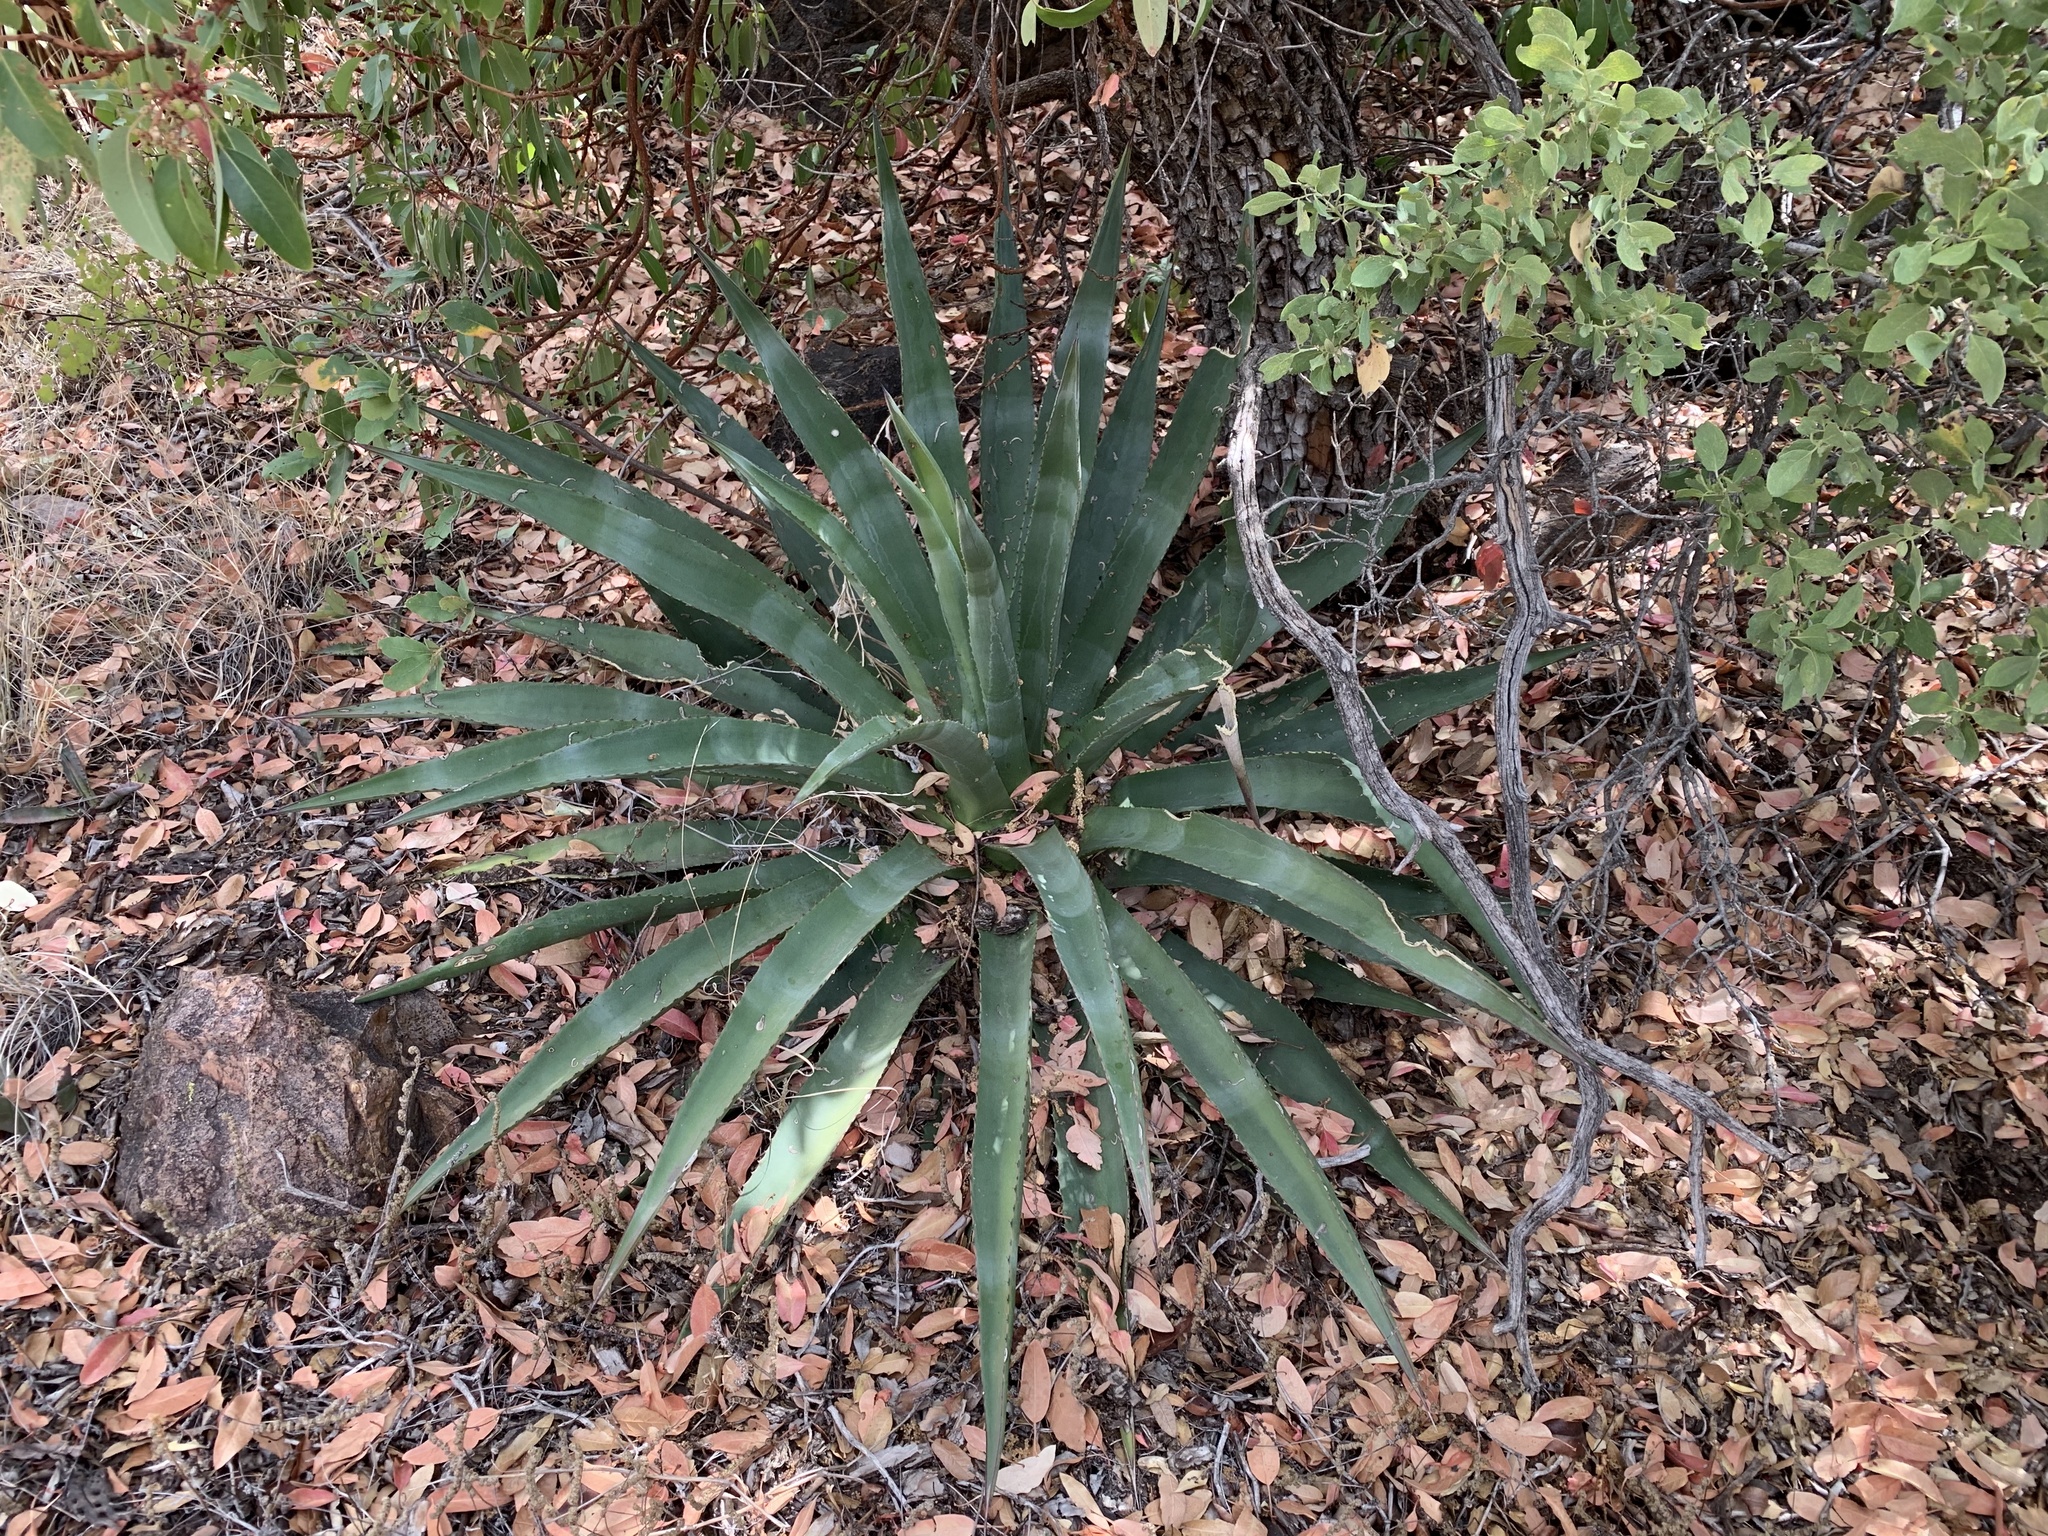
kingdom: Plantae
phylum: Tracheophyta
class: Liliopsida
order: Asparagales
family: Asparagaceae
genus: Agave
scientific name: Agave palmeri
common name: Palmer agave
